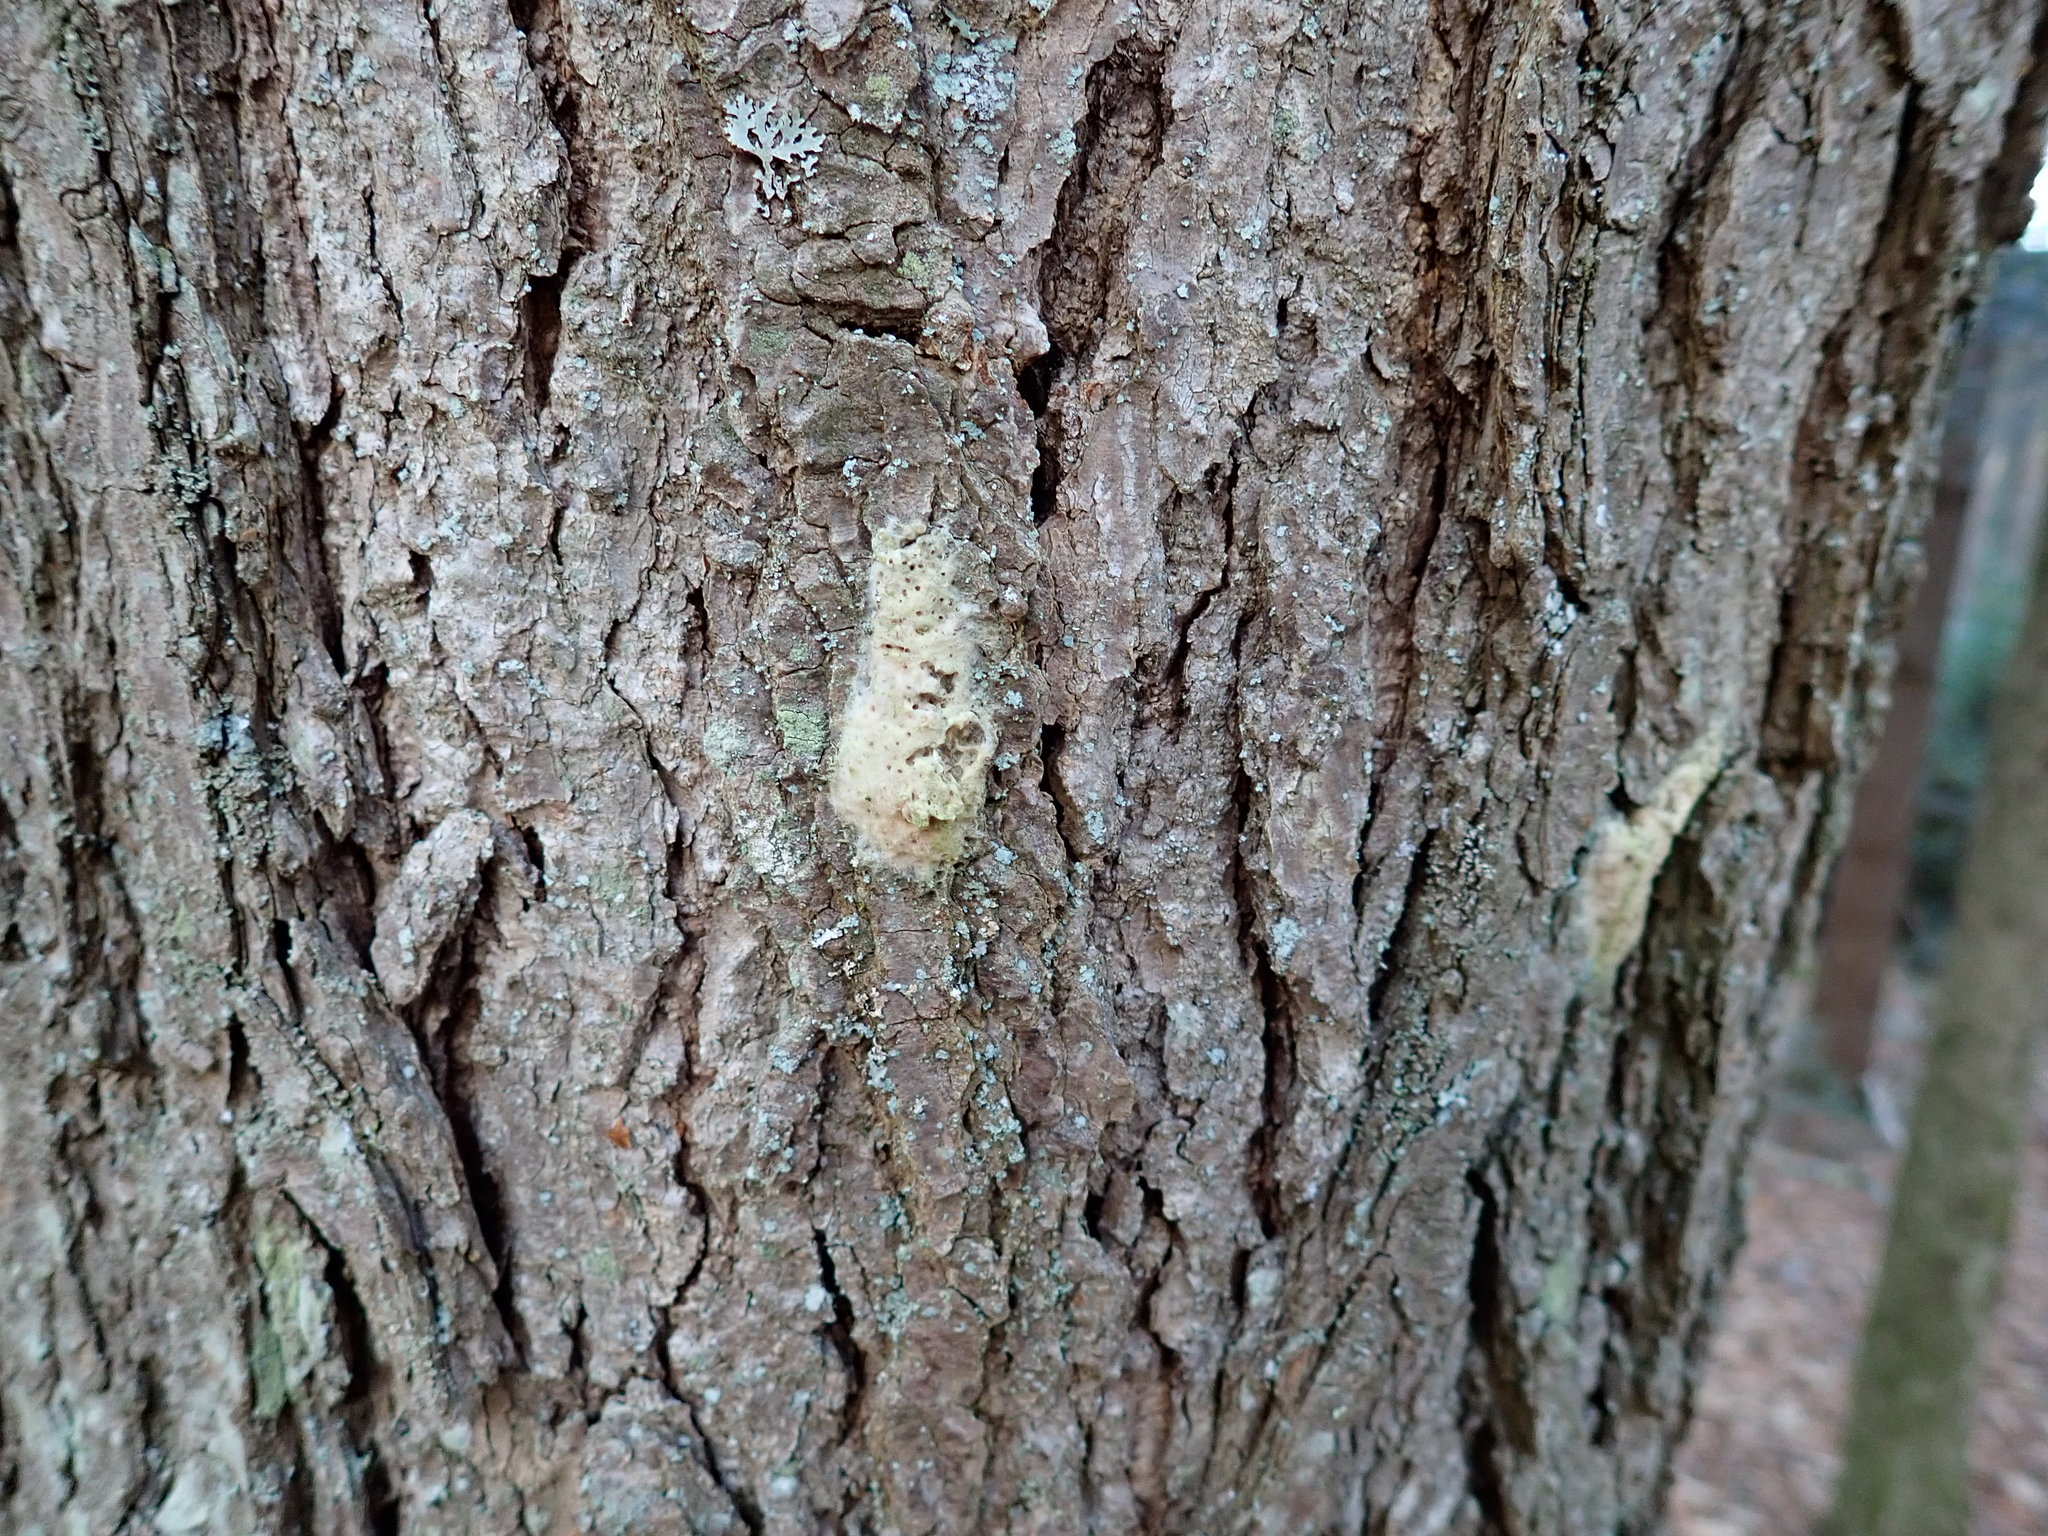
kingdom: Animalia
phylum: Arthropoda
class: Insecta
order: Lepidoptera
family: Erebidae
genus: Lymantria
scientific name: Lymantria dispar
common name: Gypsy moth
